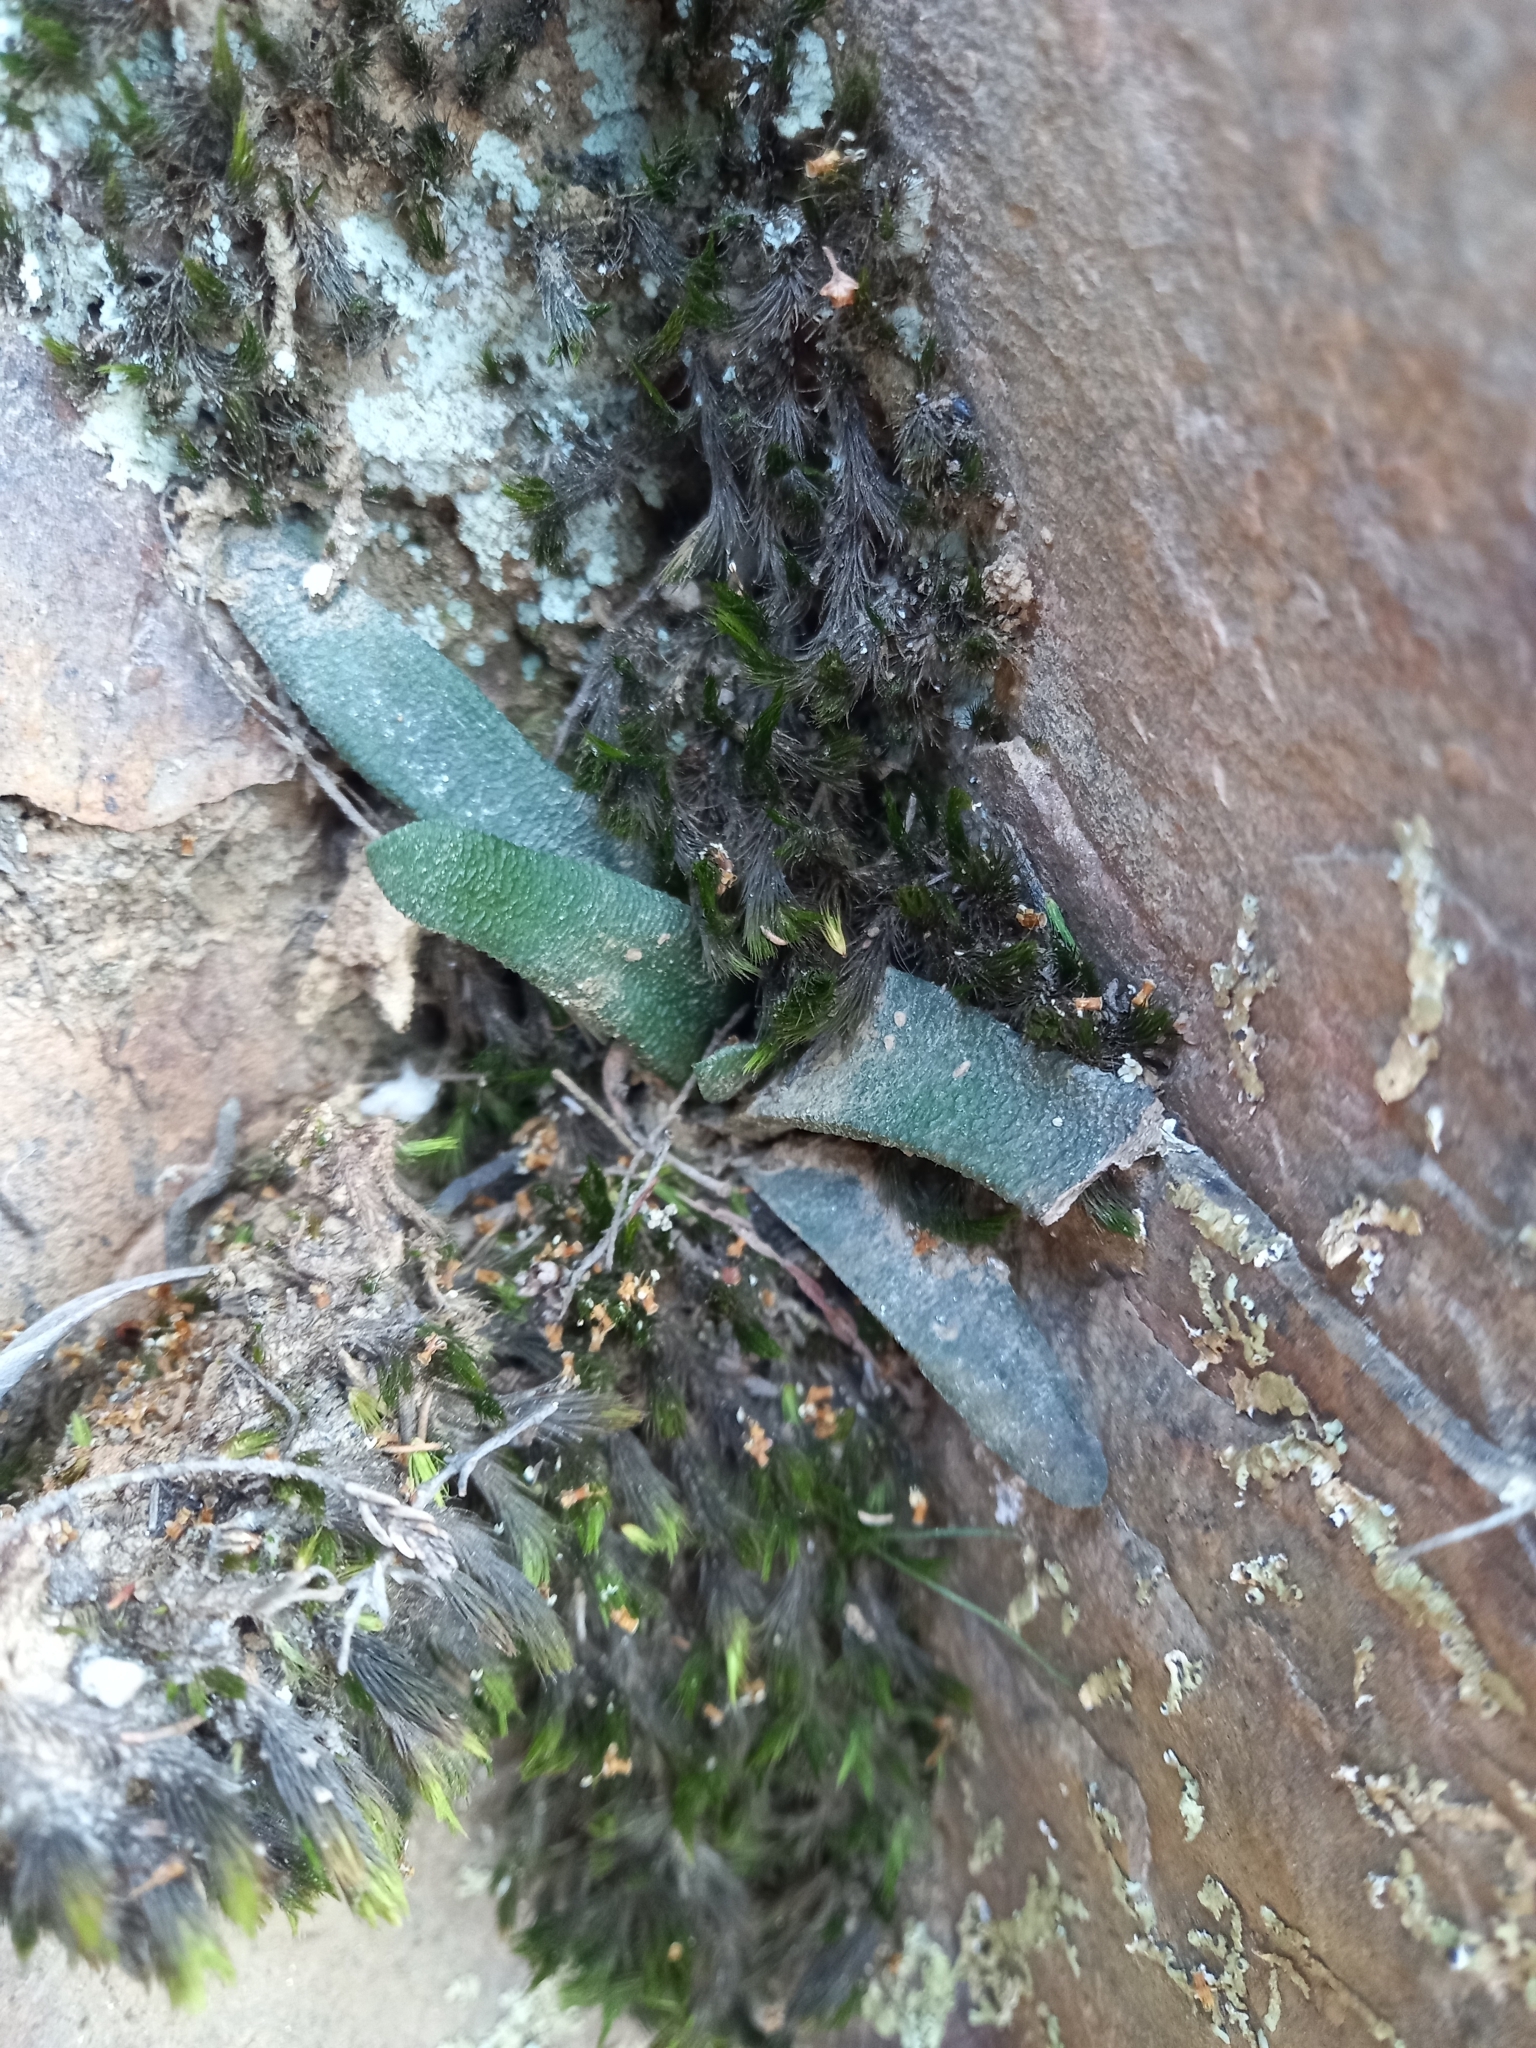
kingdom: Plantae
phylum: Tracheophyta
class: Liliopsida
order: Asparagales
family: Asphodelaceae
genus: Haworthiopsis
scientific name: Haworthiopsis scabra
